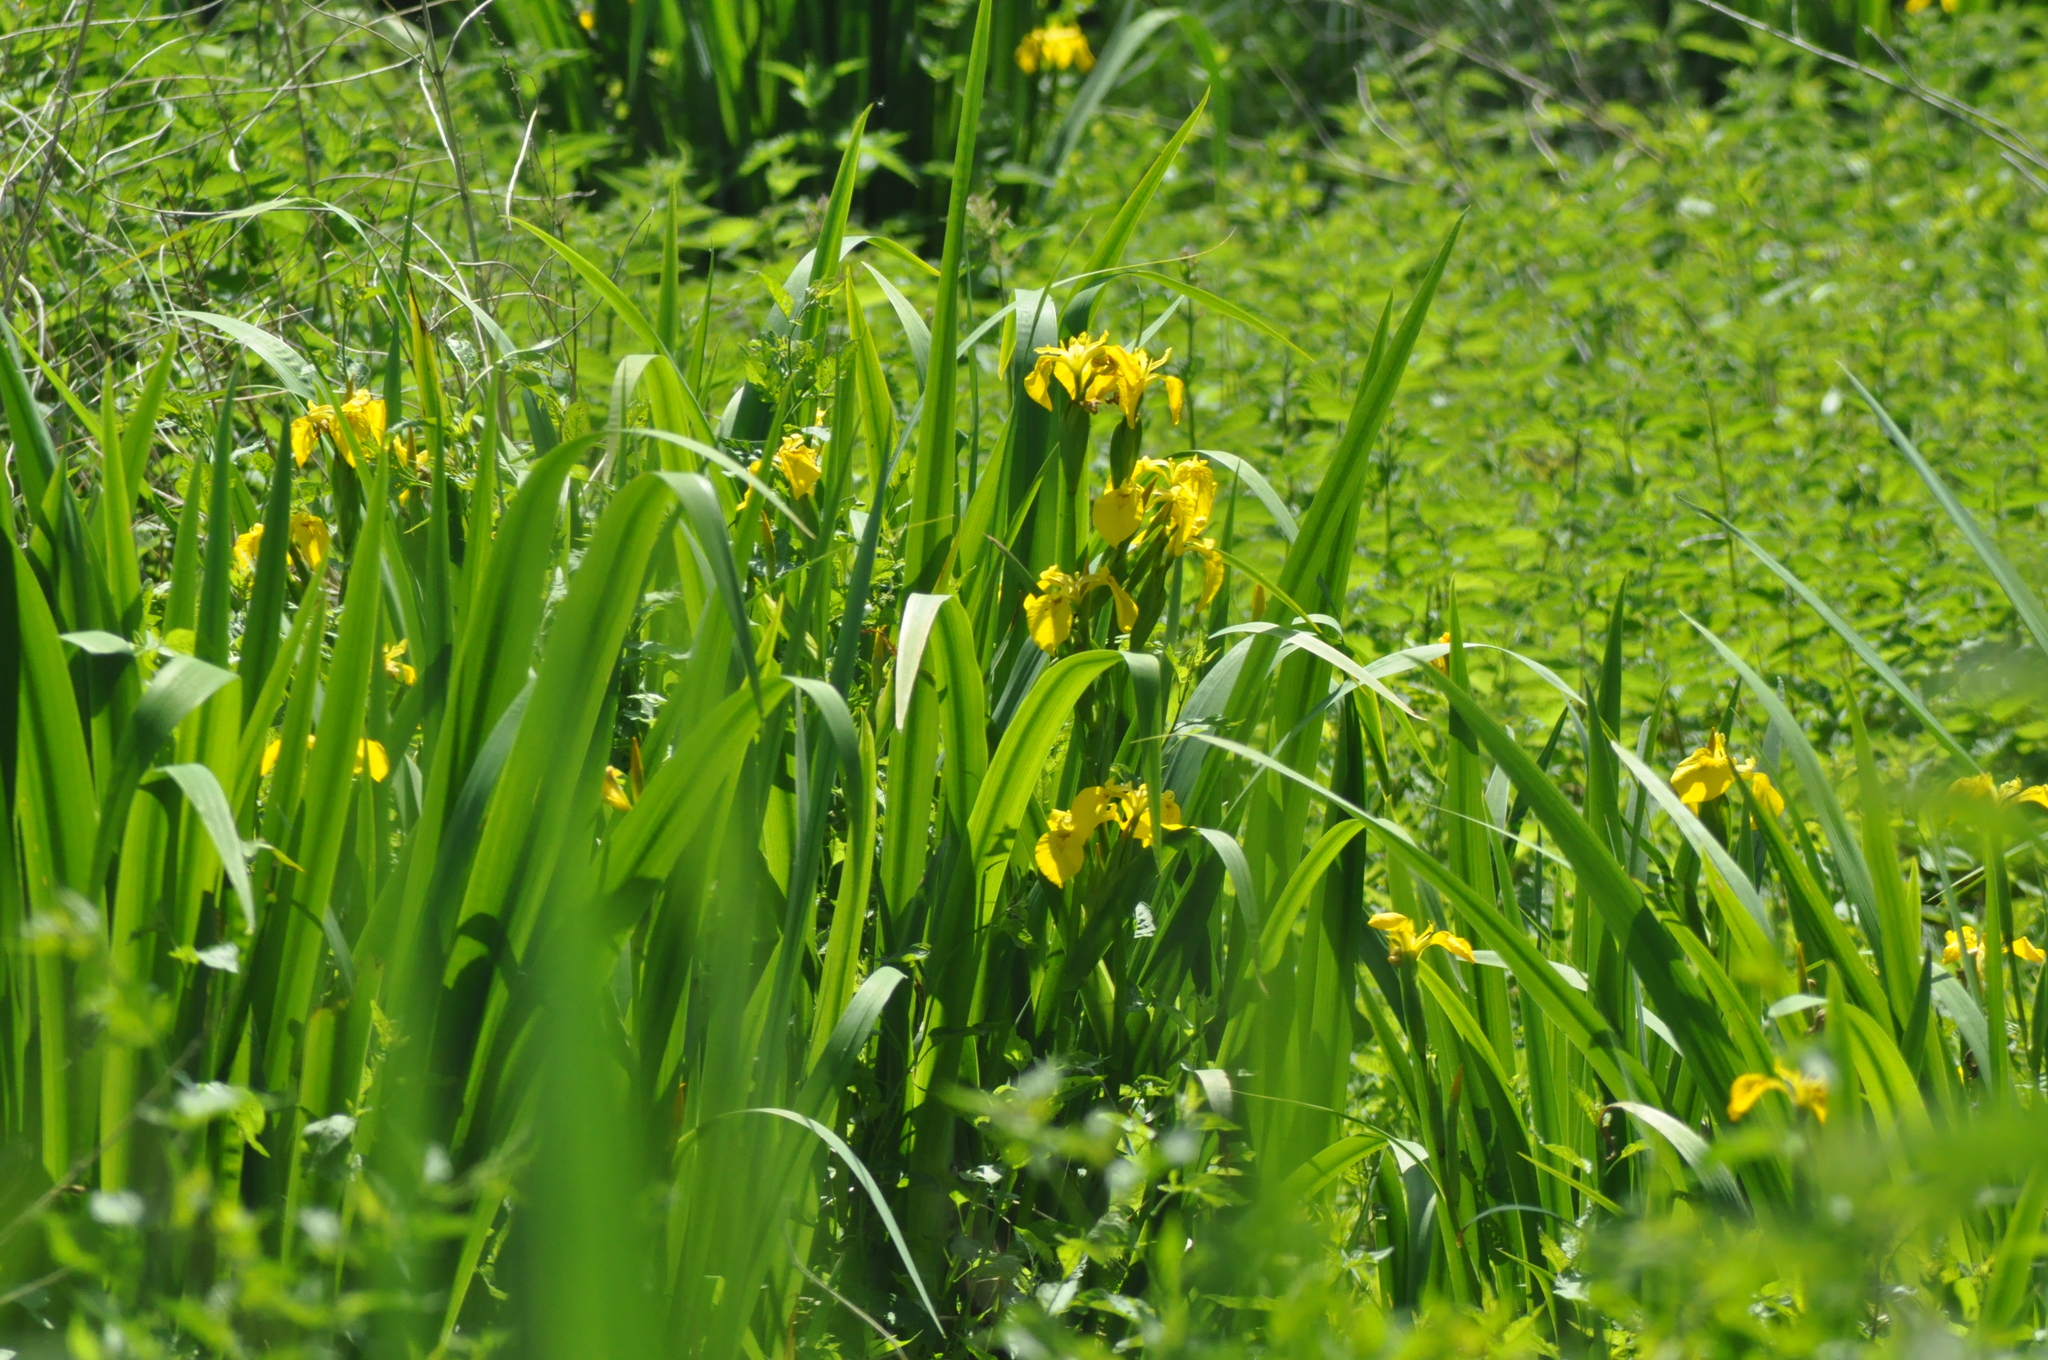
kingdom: Plantae
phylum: Tracheophyta
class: Liliopsida
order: Asparagales
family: Iridaceae
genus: Iris
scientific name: Iris pseudacorus
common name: Yellow flag
